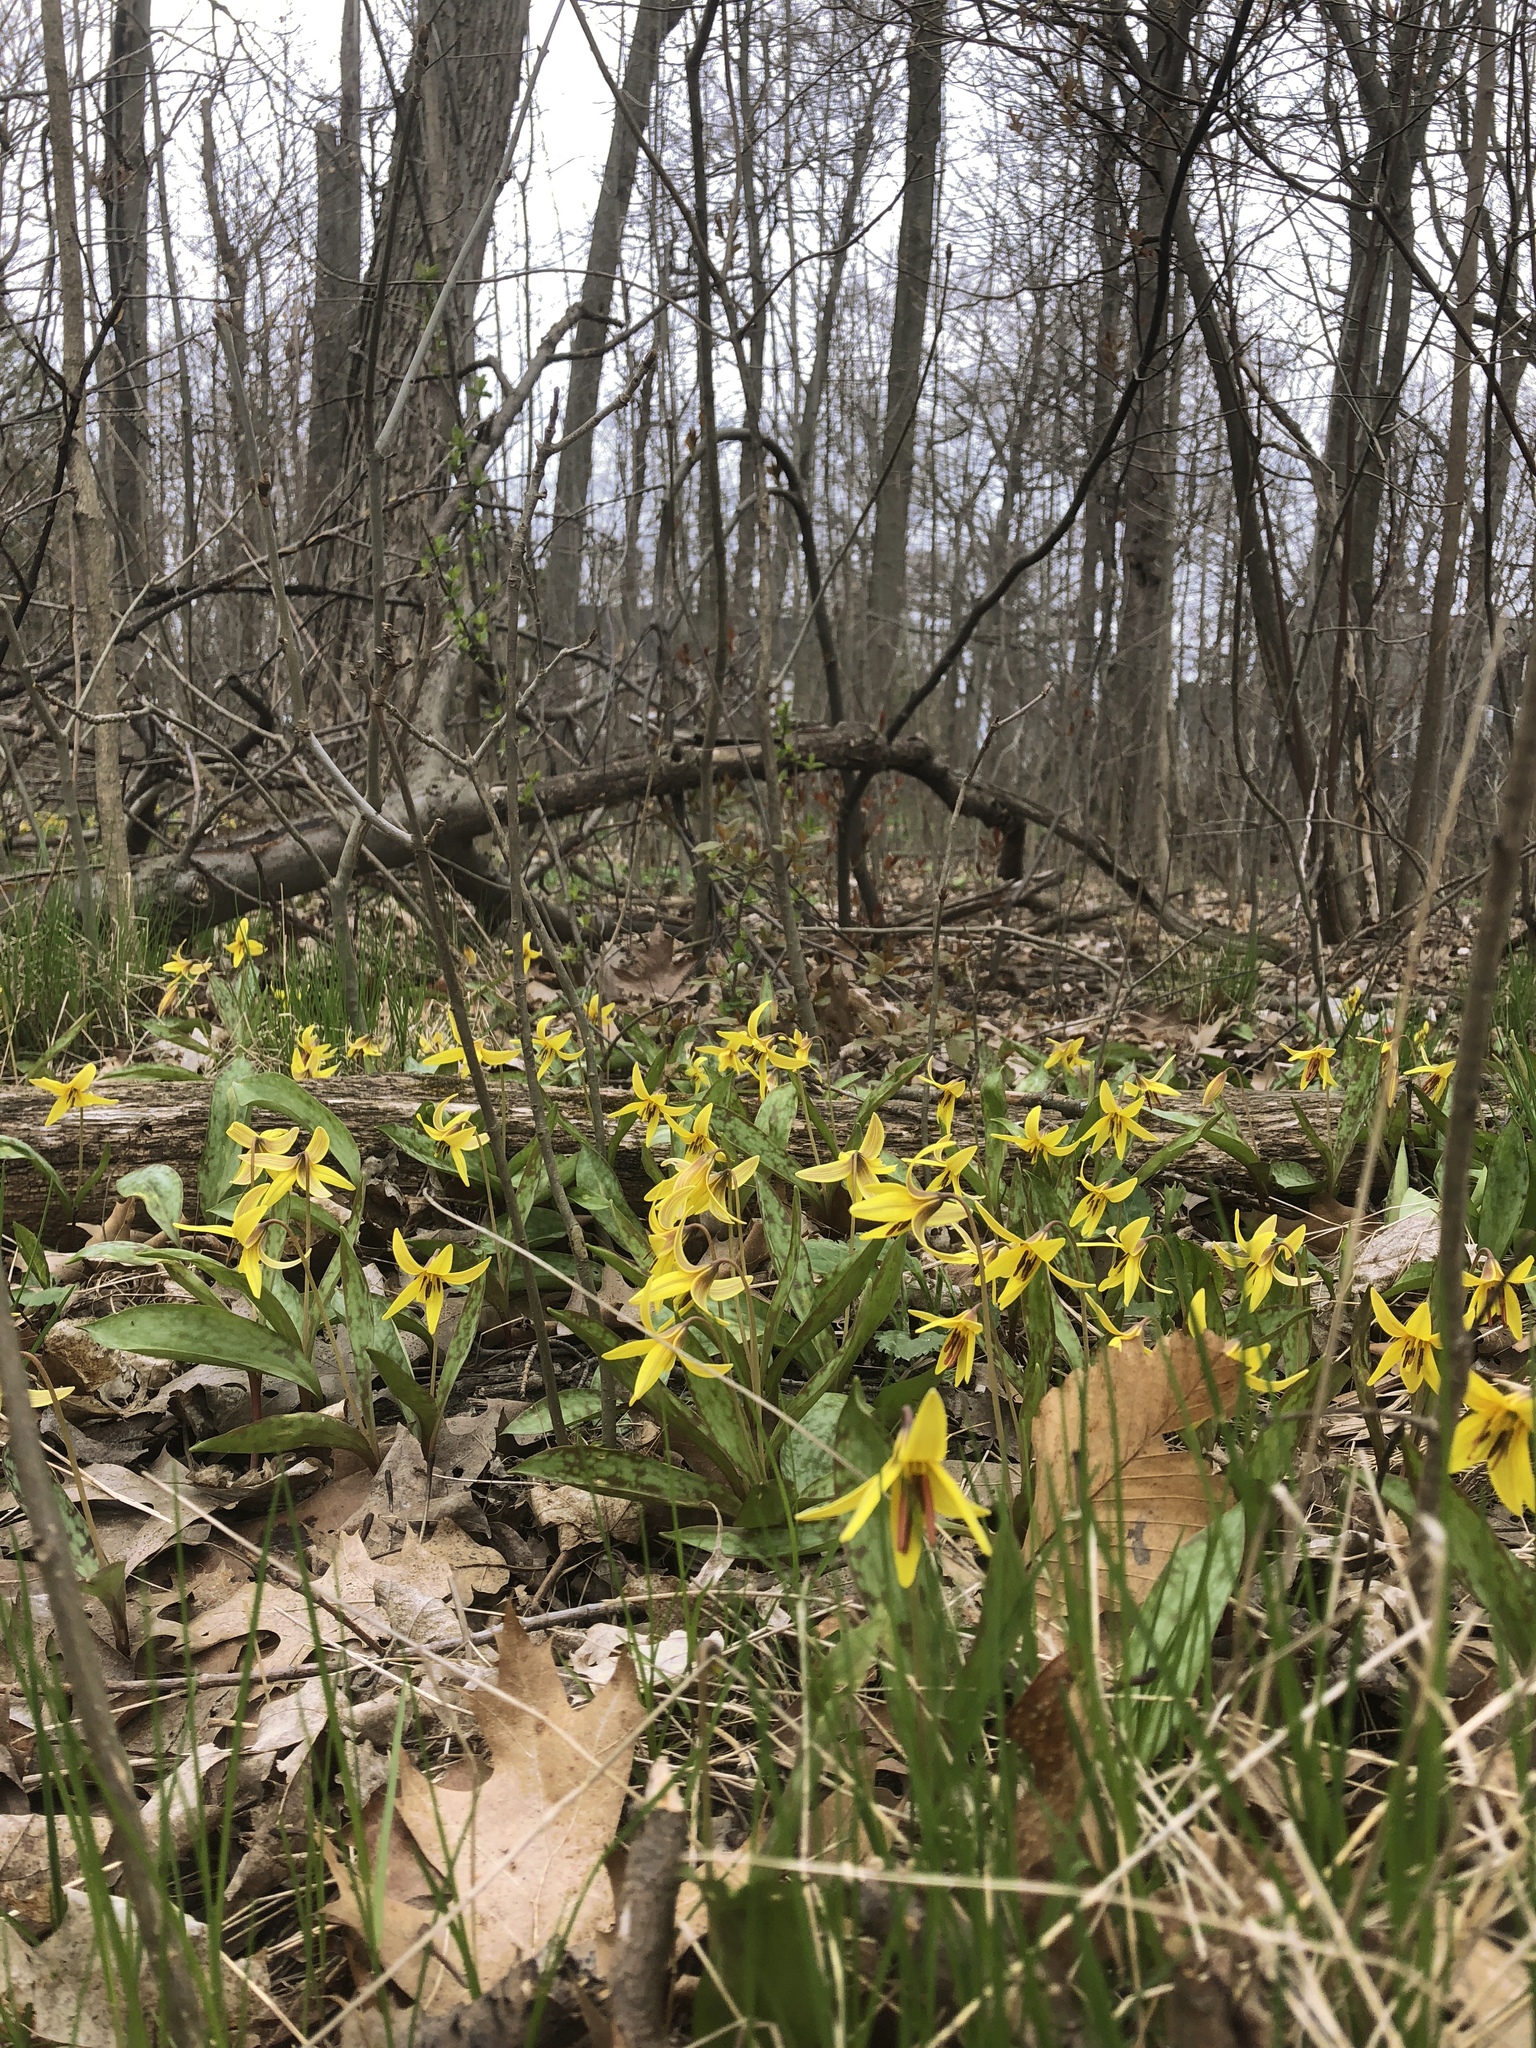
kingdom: Plantae
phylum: Tracheophyta
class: Liliopsida
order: Liliales
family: Liliaceae
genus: Erythronium
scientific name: Erythronium americanum
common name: Yellow adder's-tongue
